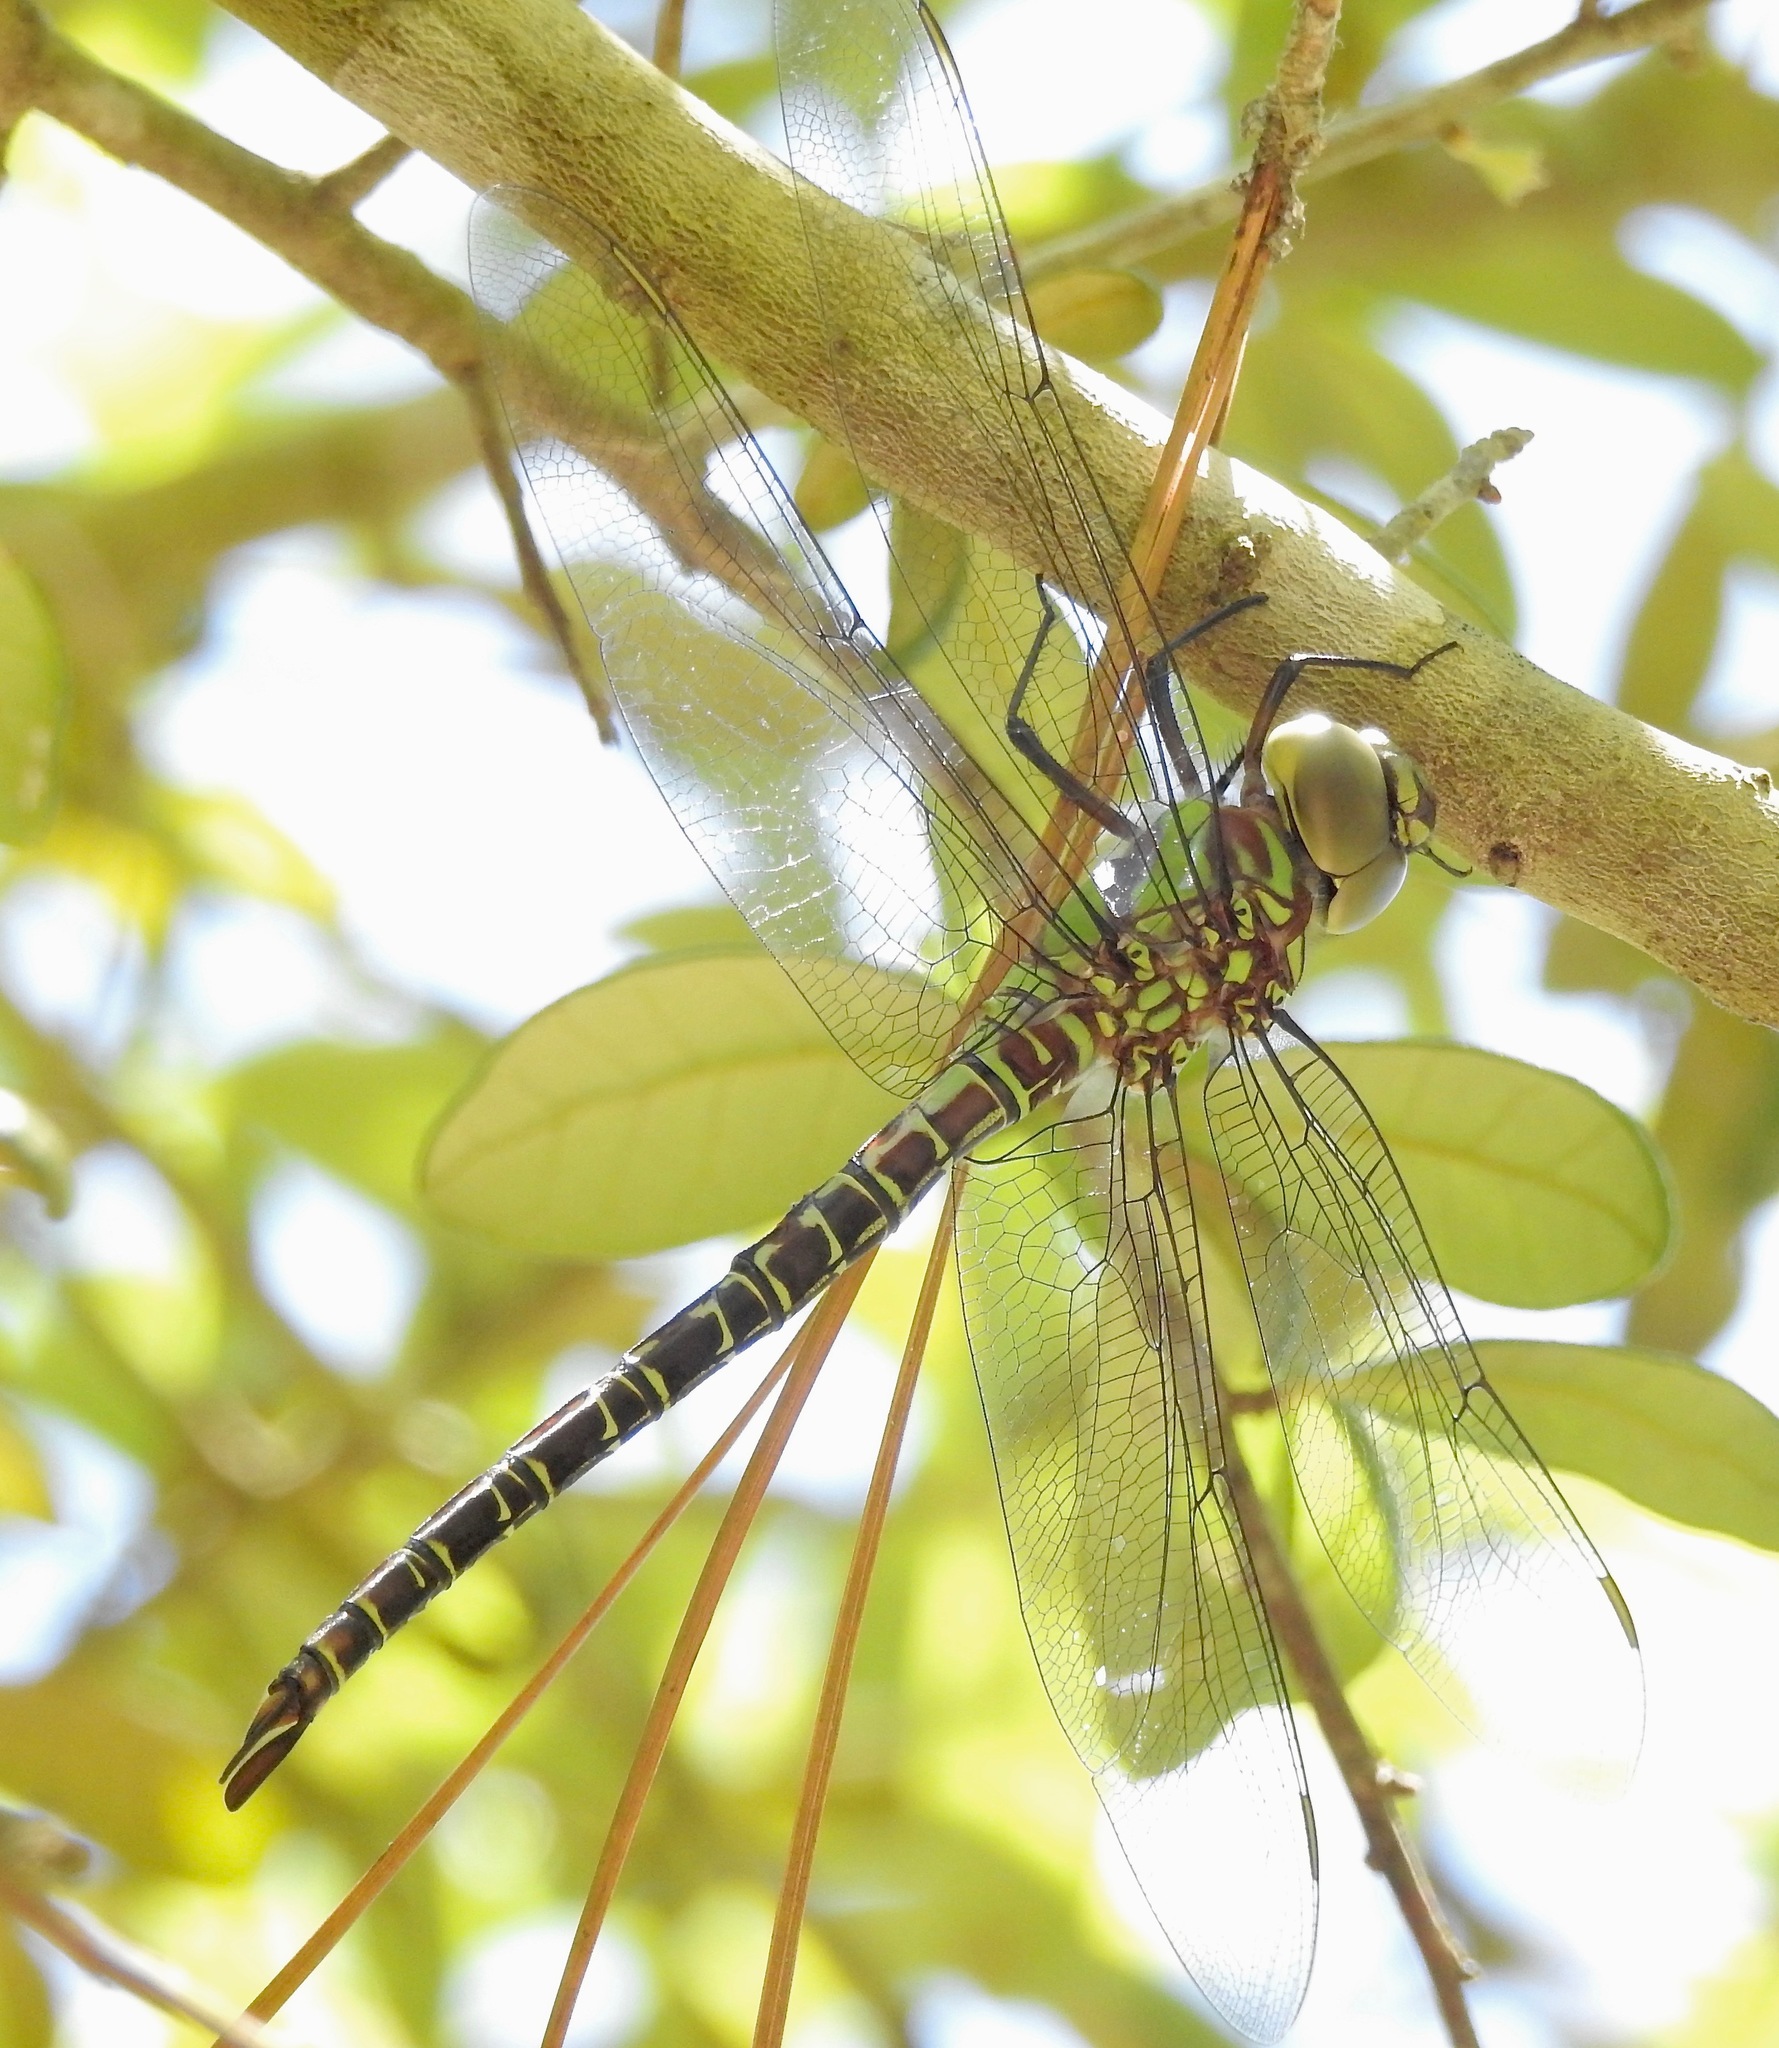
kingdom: Animalia
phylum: Arthropoda
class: Insecta
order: Odonata
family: Aeshnidae
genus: Coryphaeschna
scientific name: Coryphaeschna ingens
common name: Regal darner
